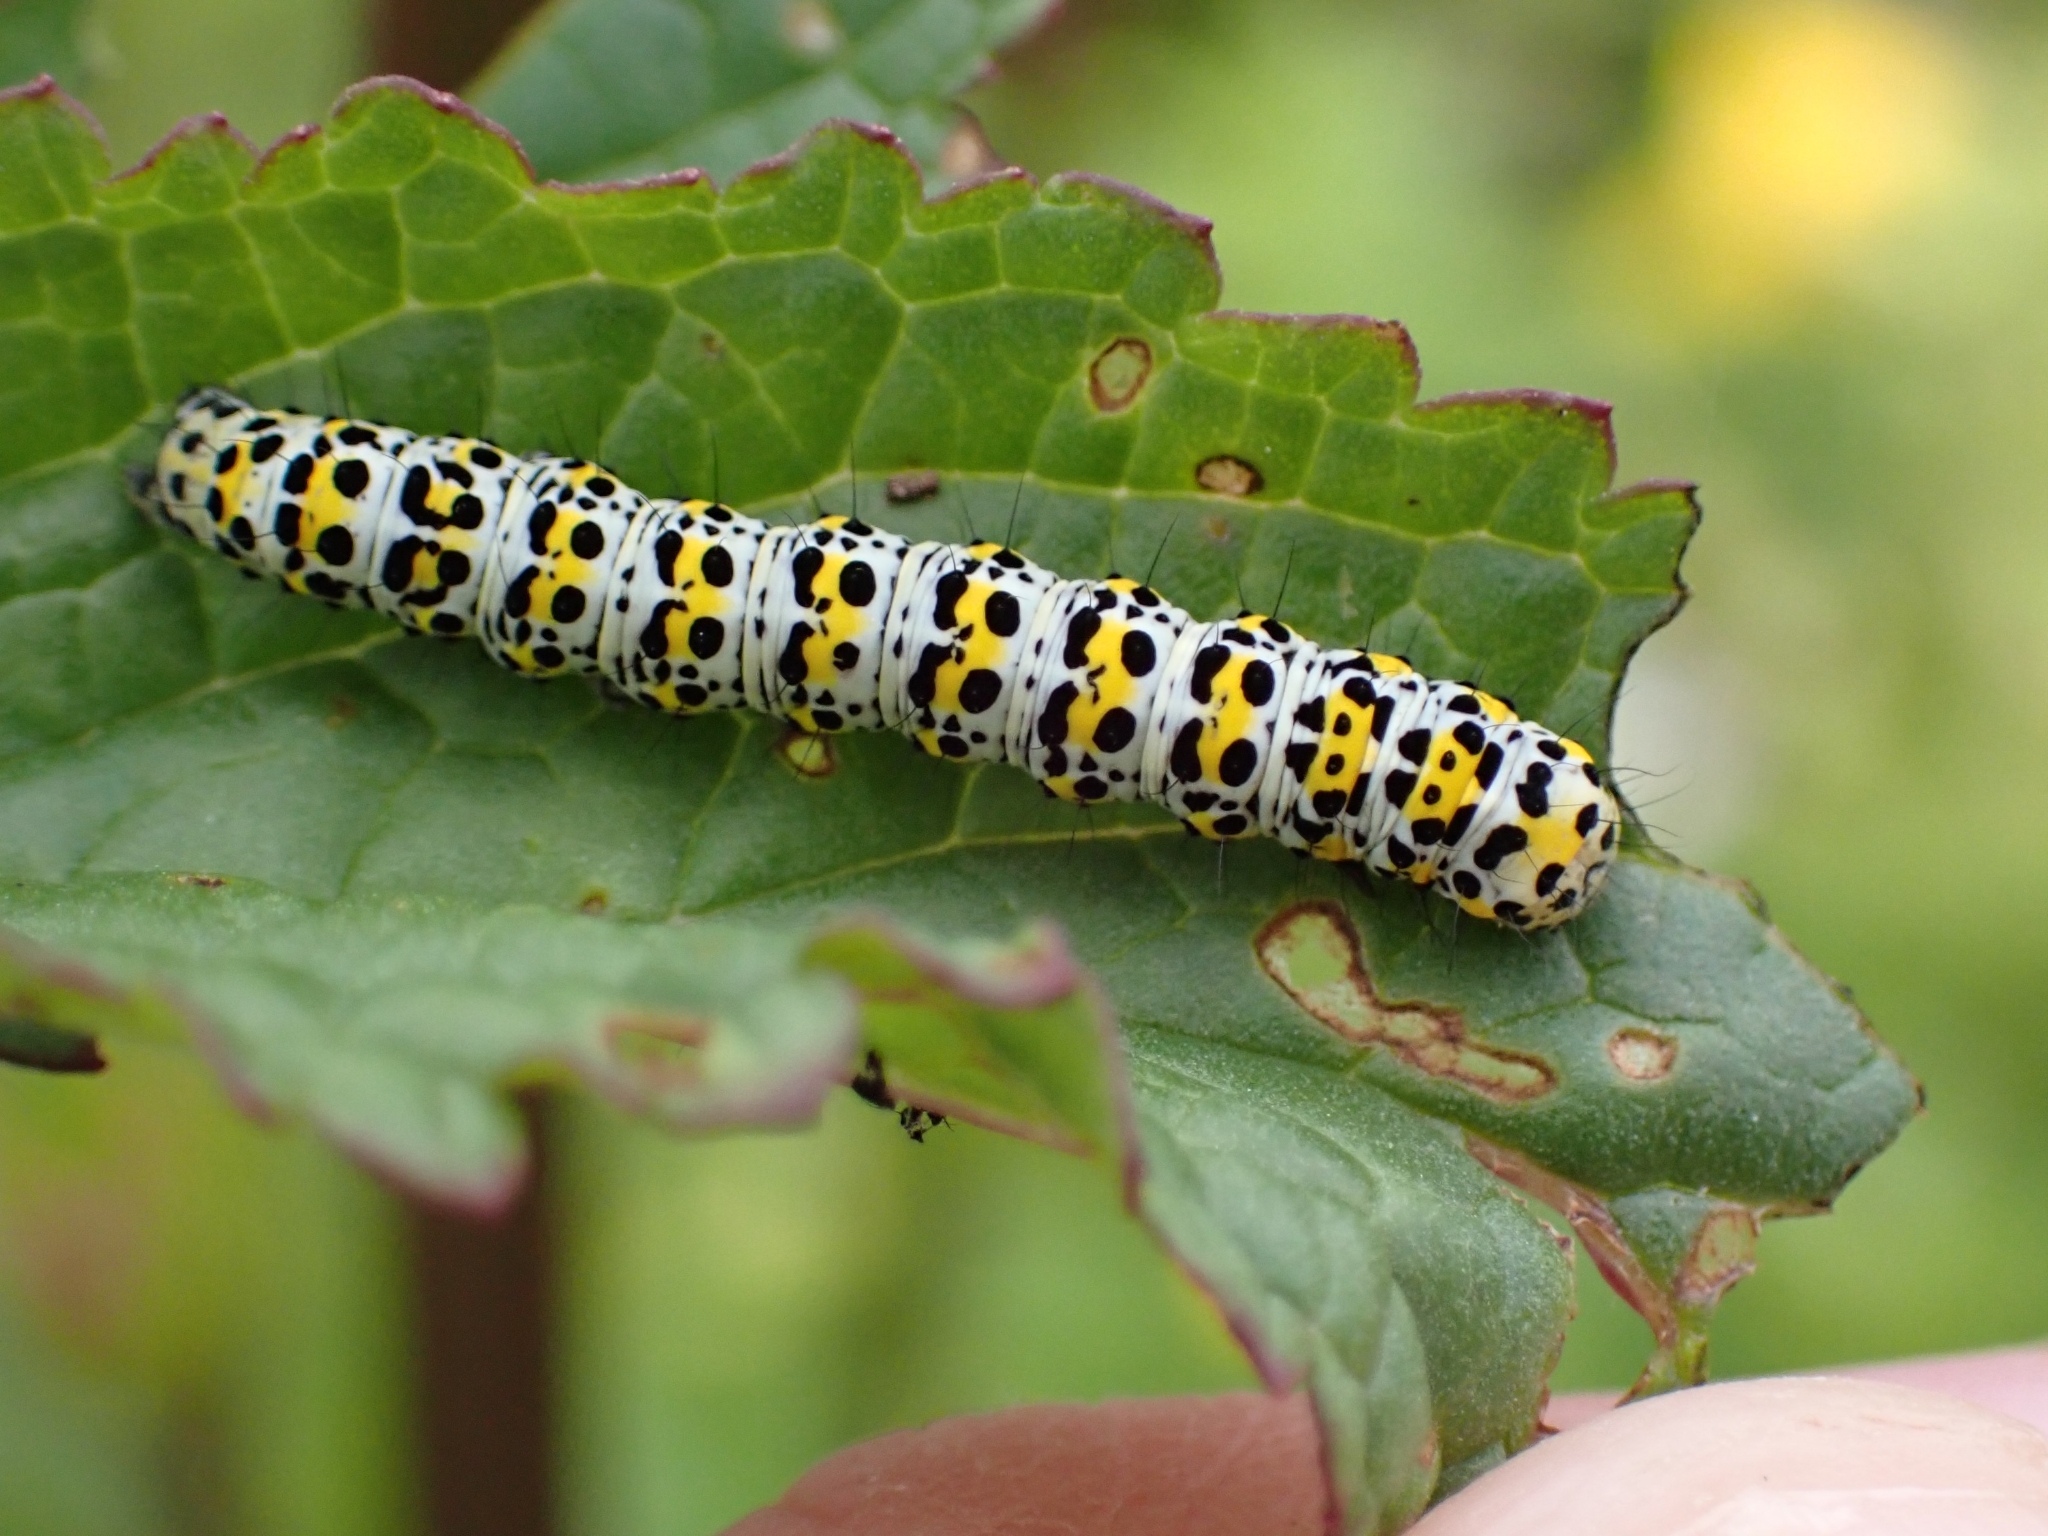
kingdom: Animalia
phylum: Arthropoda
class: Insecta
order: Lepidoptera
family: Noctuidae
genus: Cucullia
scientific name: Cucullia verbasci
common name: Mullein
